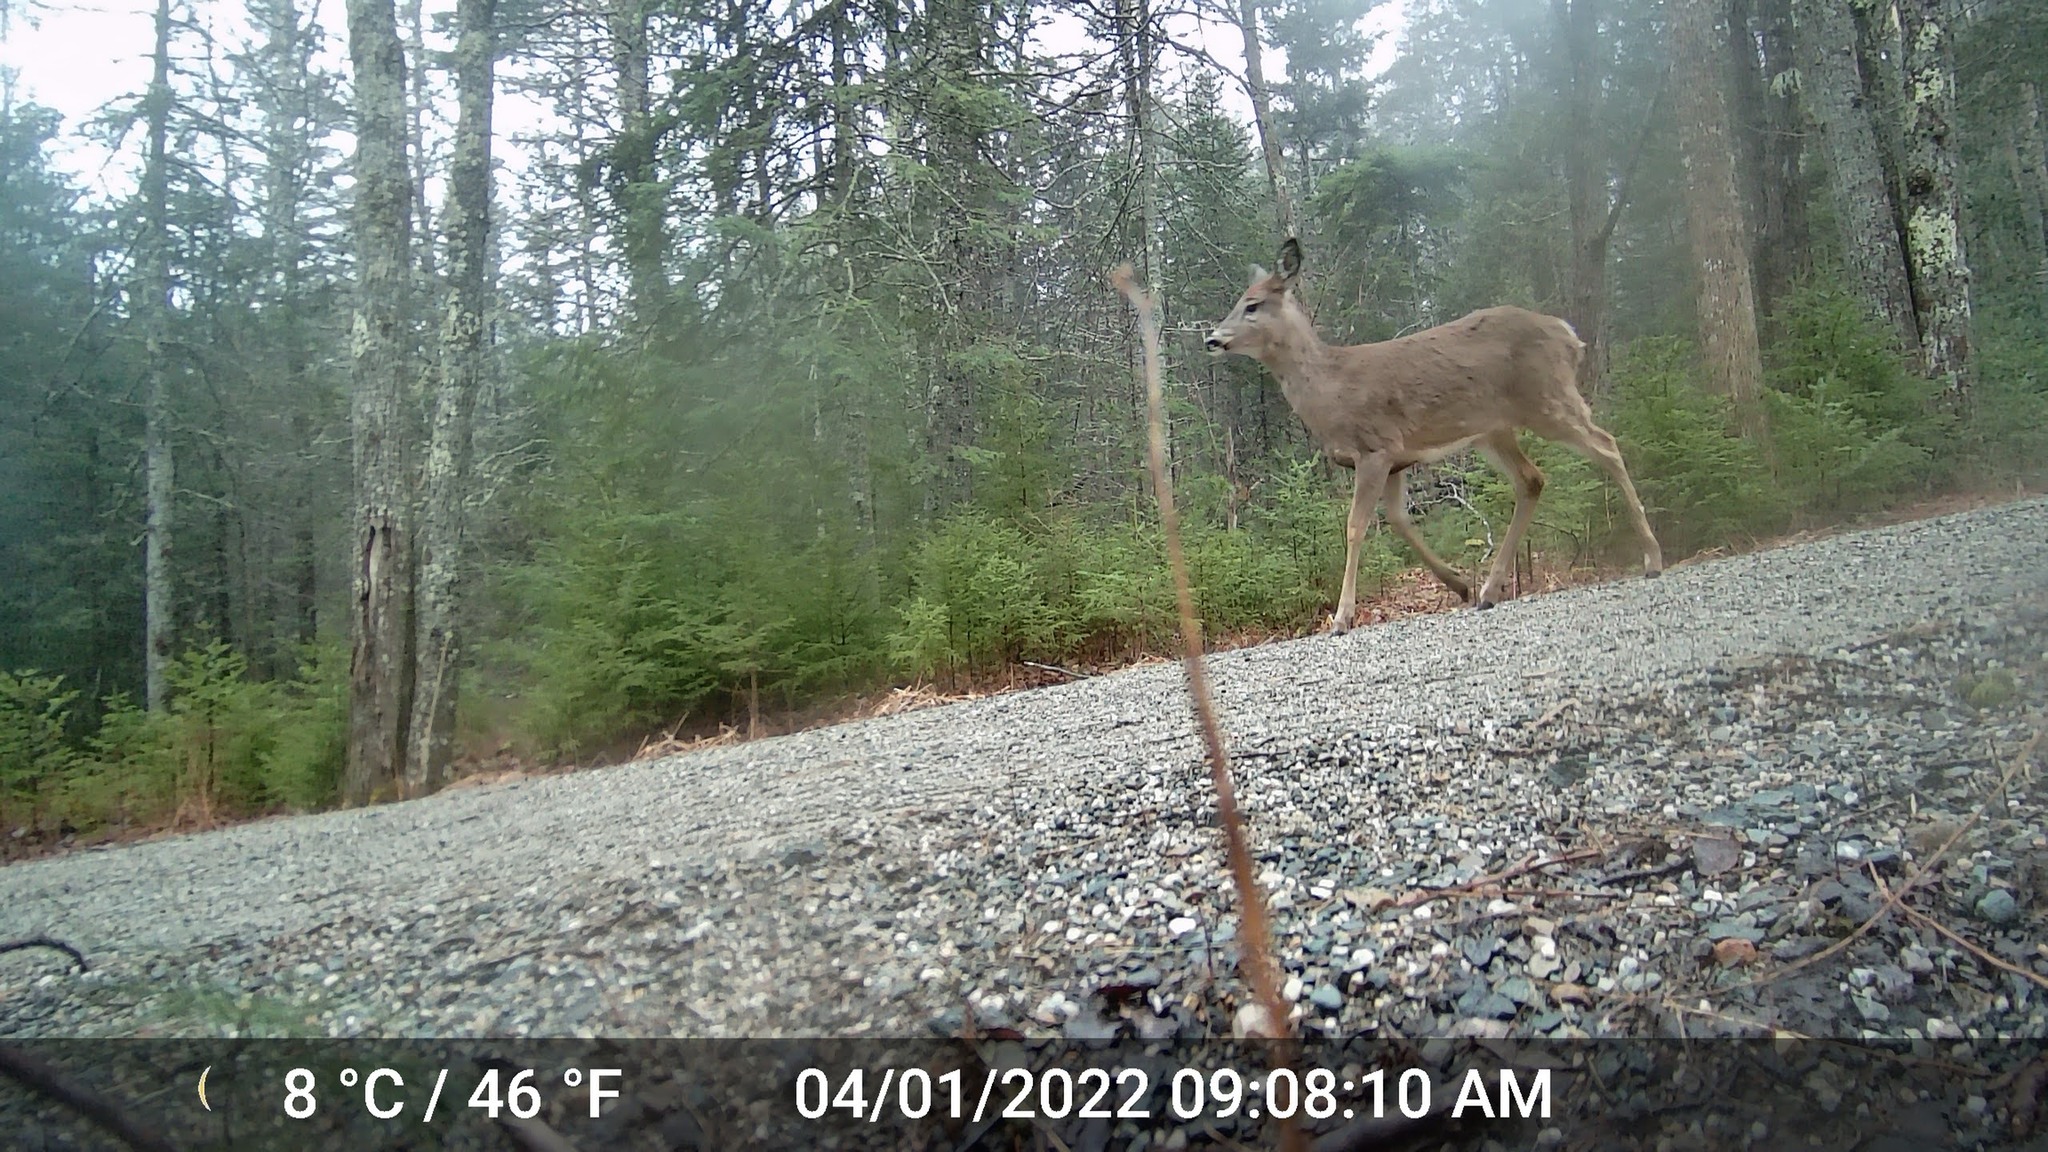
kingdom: Animalia
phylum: Chordata
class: Mammalia
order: Artiodactyla
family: Cervidae
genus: Odocoileus
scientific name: Odocoileus virginianus
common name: White-tailed deer
